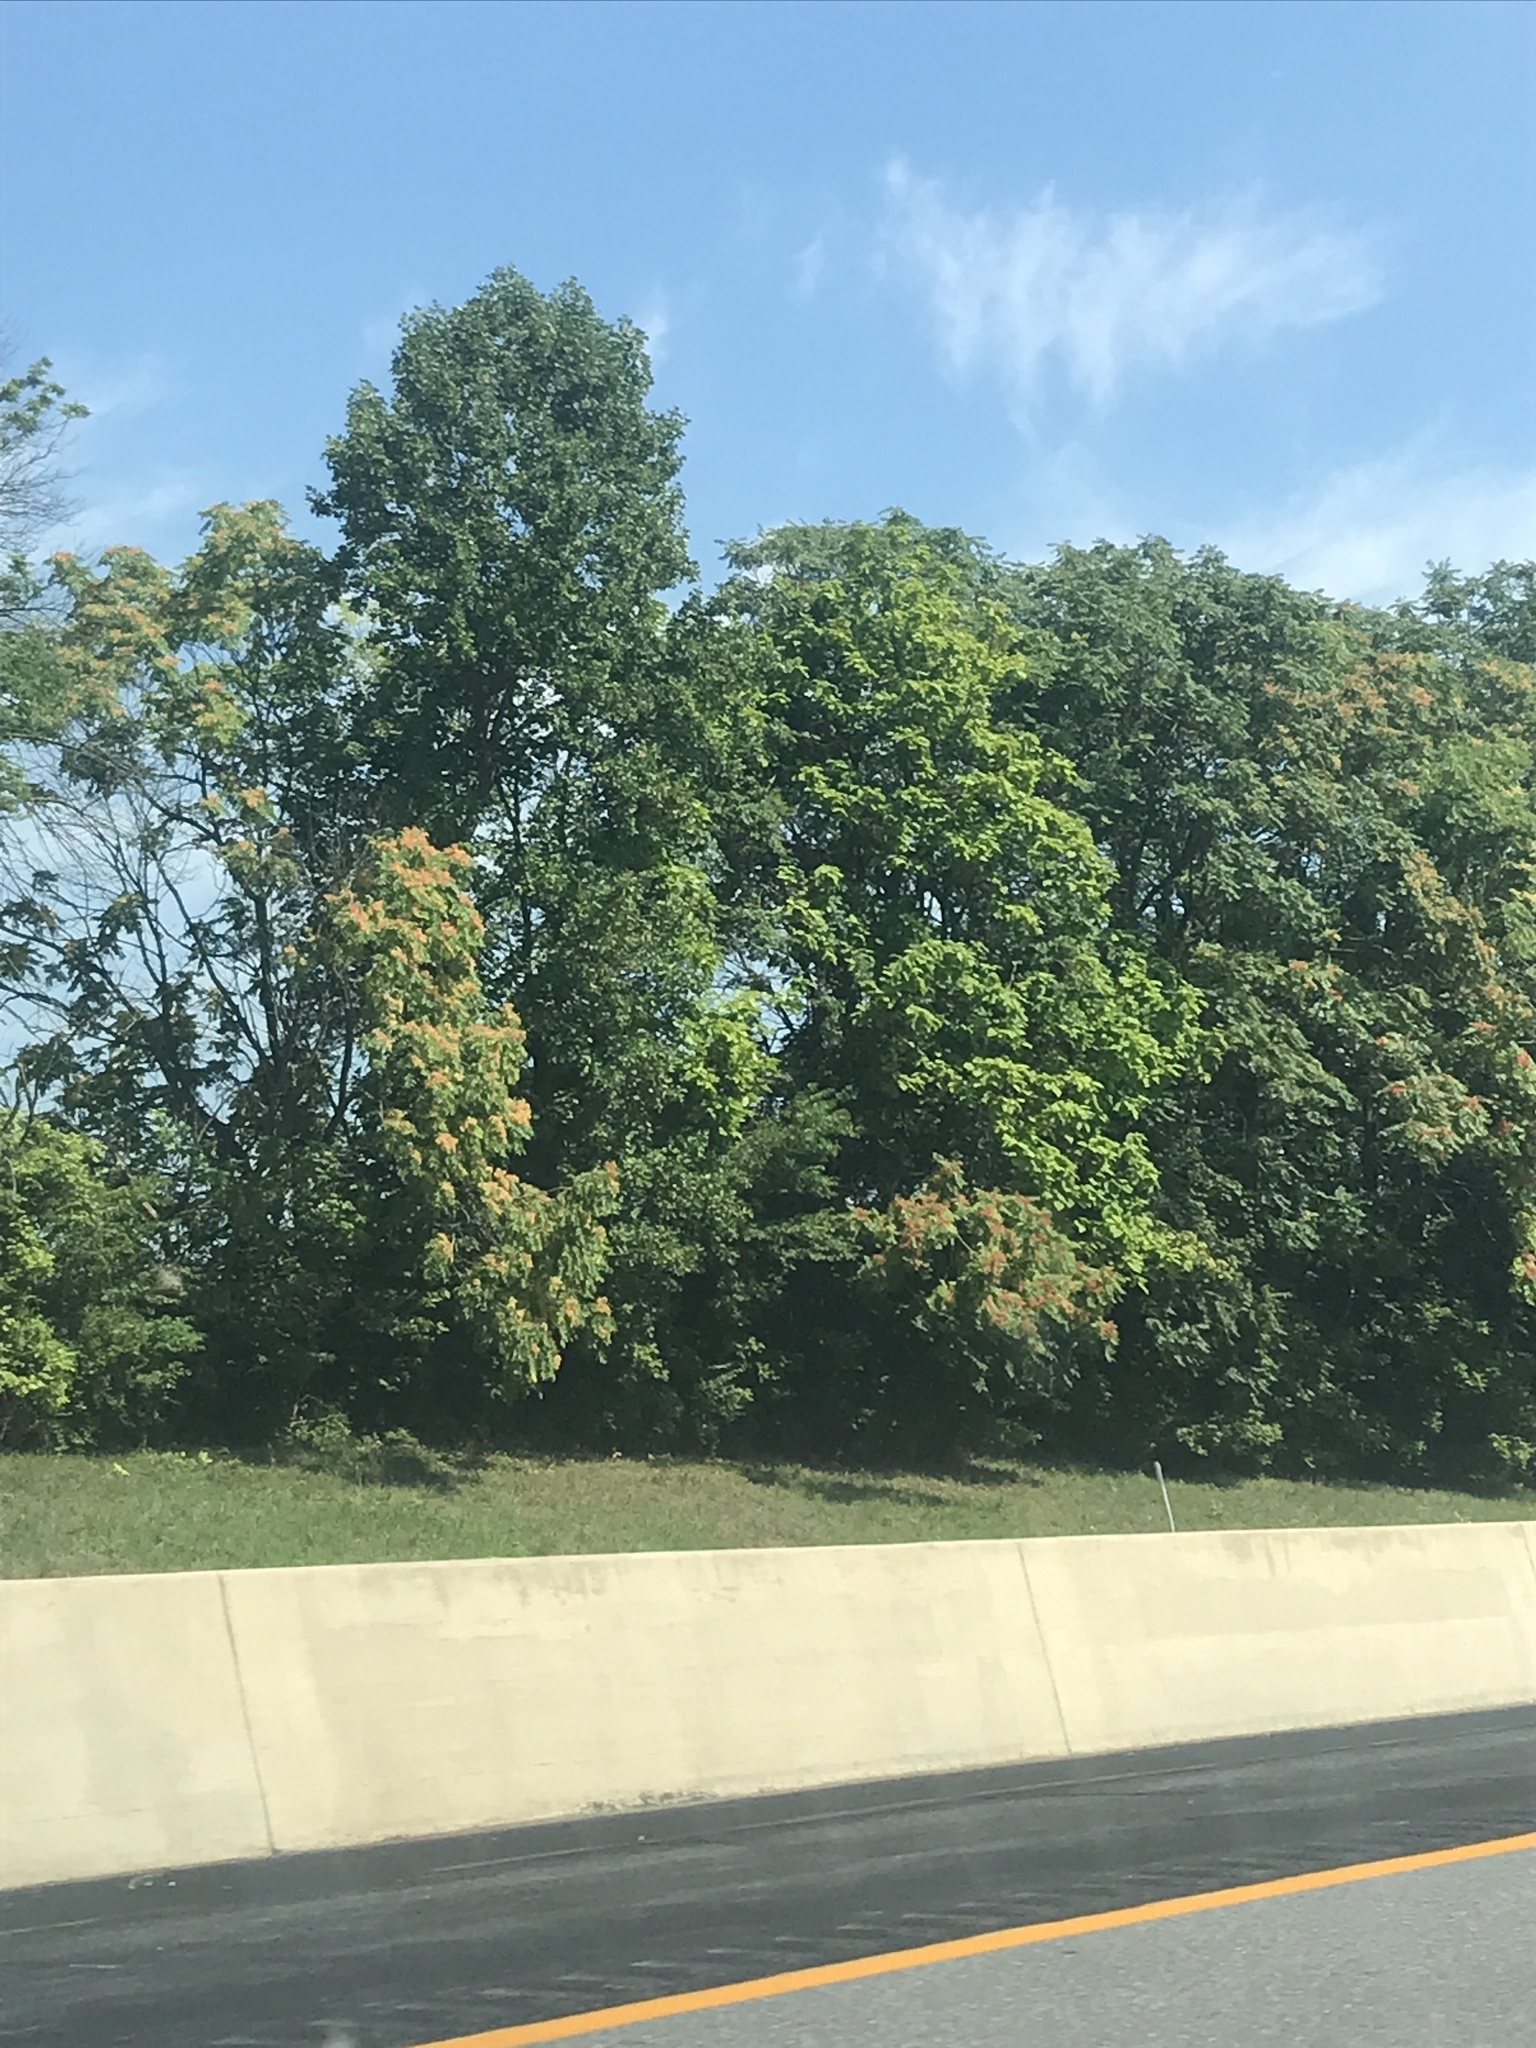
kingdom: Plantae
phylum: Tracheophyta
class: Magnoliopsida
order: Sapindales
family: Simaroubaceae
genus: Ailanthus
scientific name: Ailanthus altissima
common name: Tree-of-heaven
